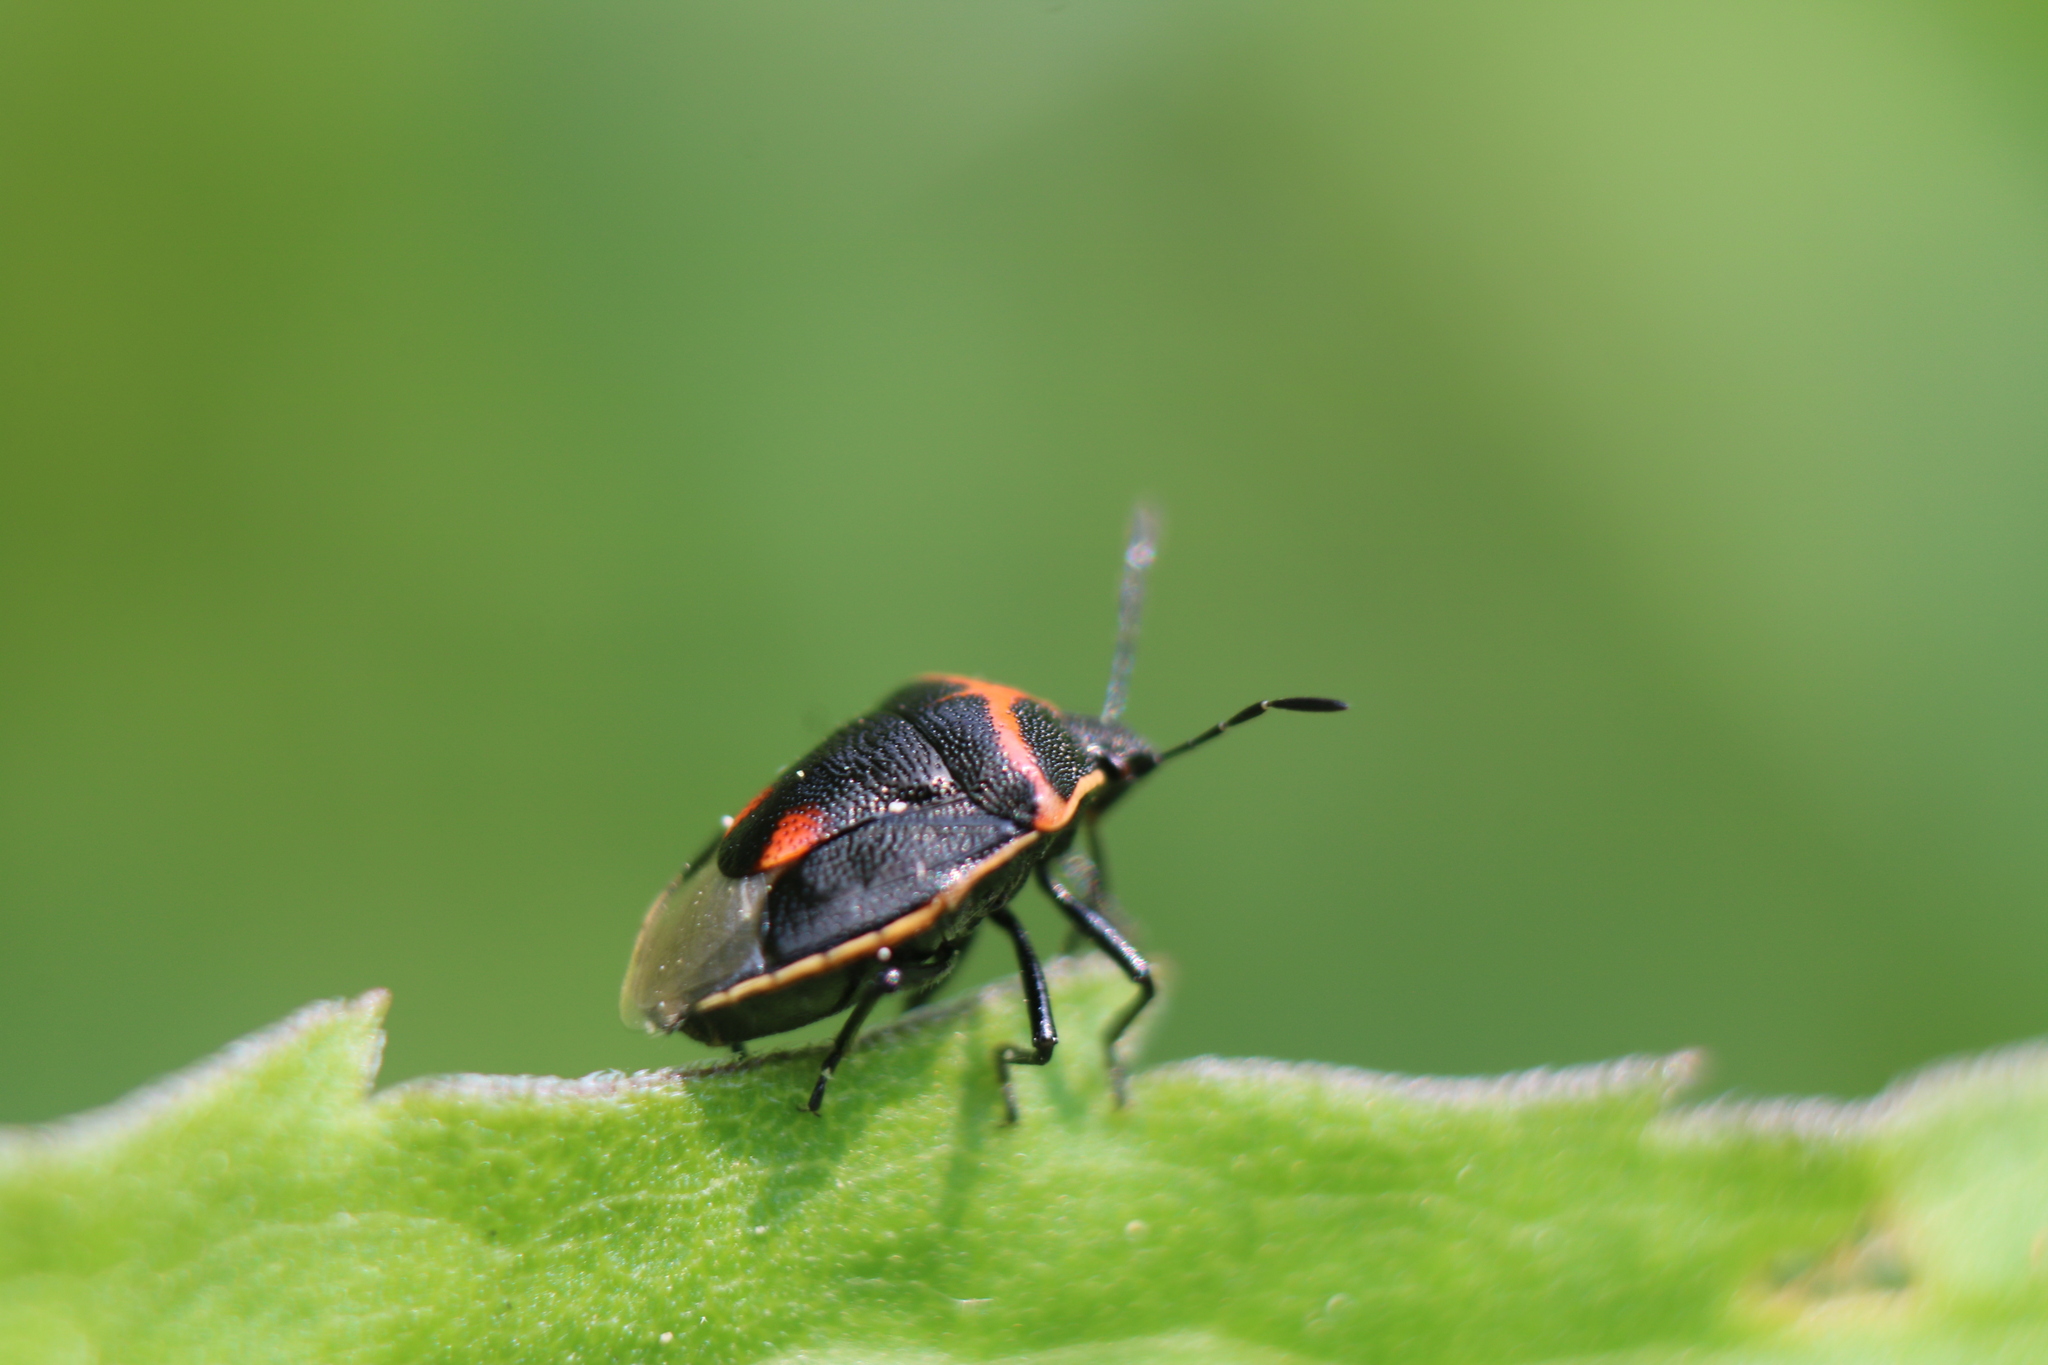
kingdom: Animalia
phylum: Arthropoda
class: Insecta
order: Hemiptera
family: Pentatomidae
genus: Cosmopepla
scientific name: Cosmopepla lintneriana
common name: Twice-stabbed stink bug
